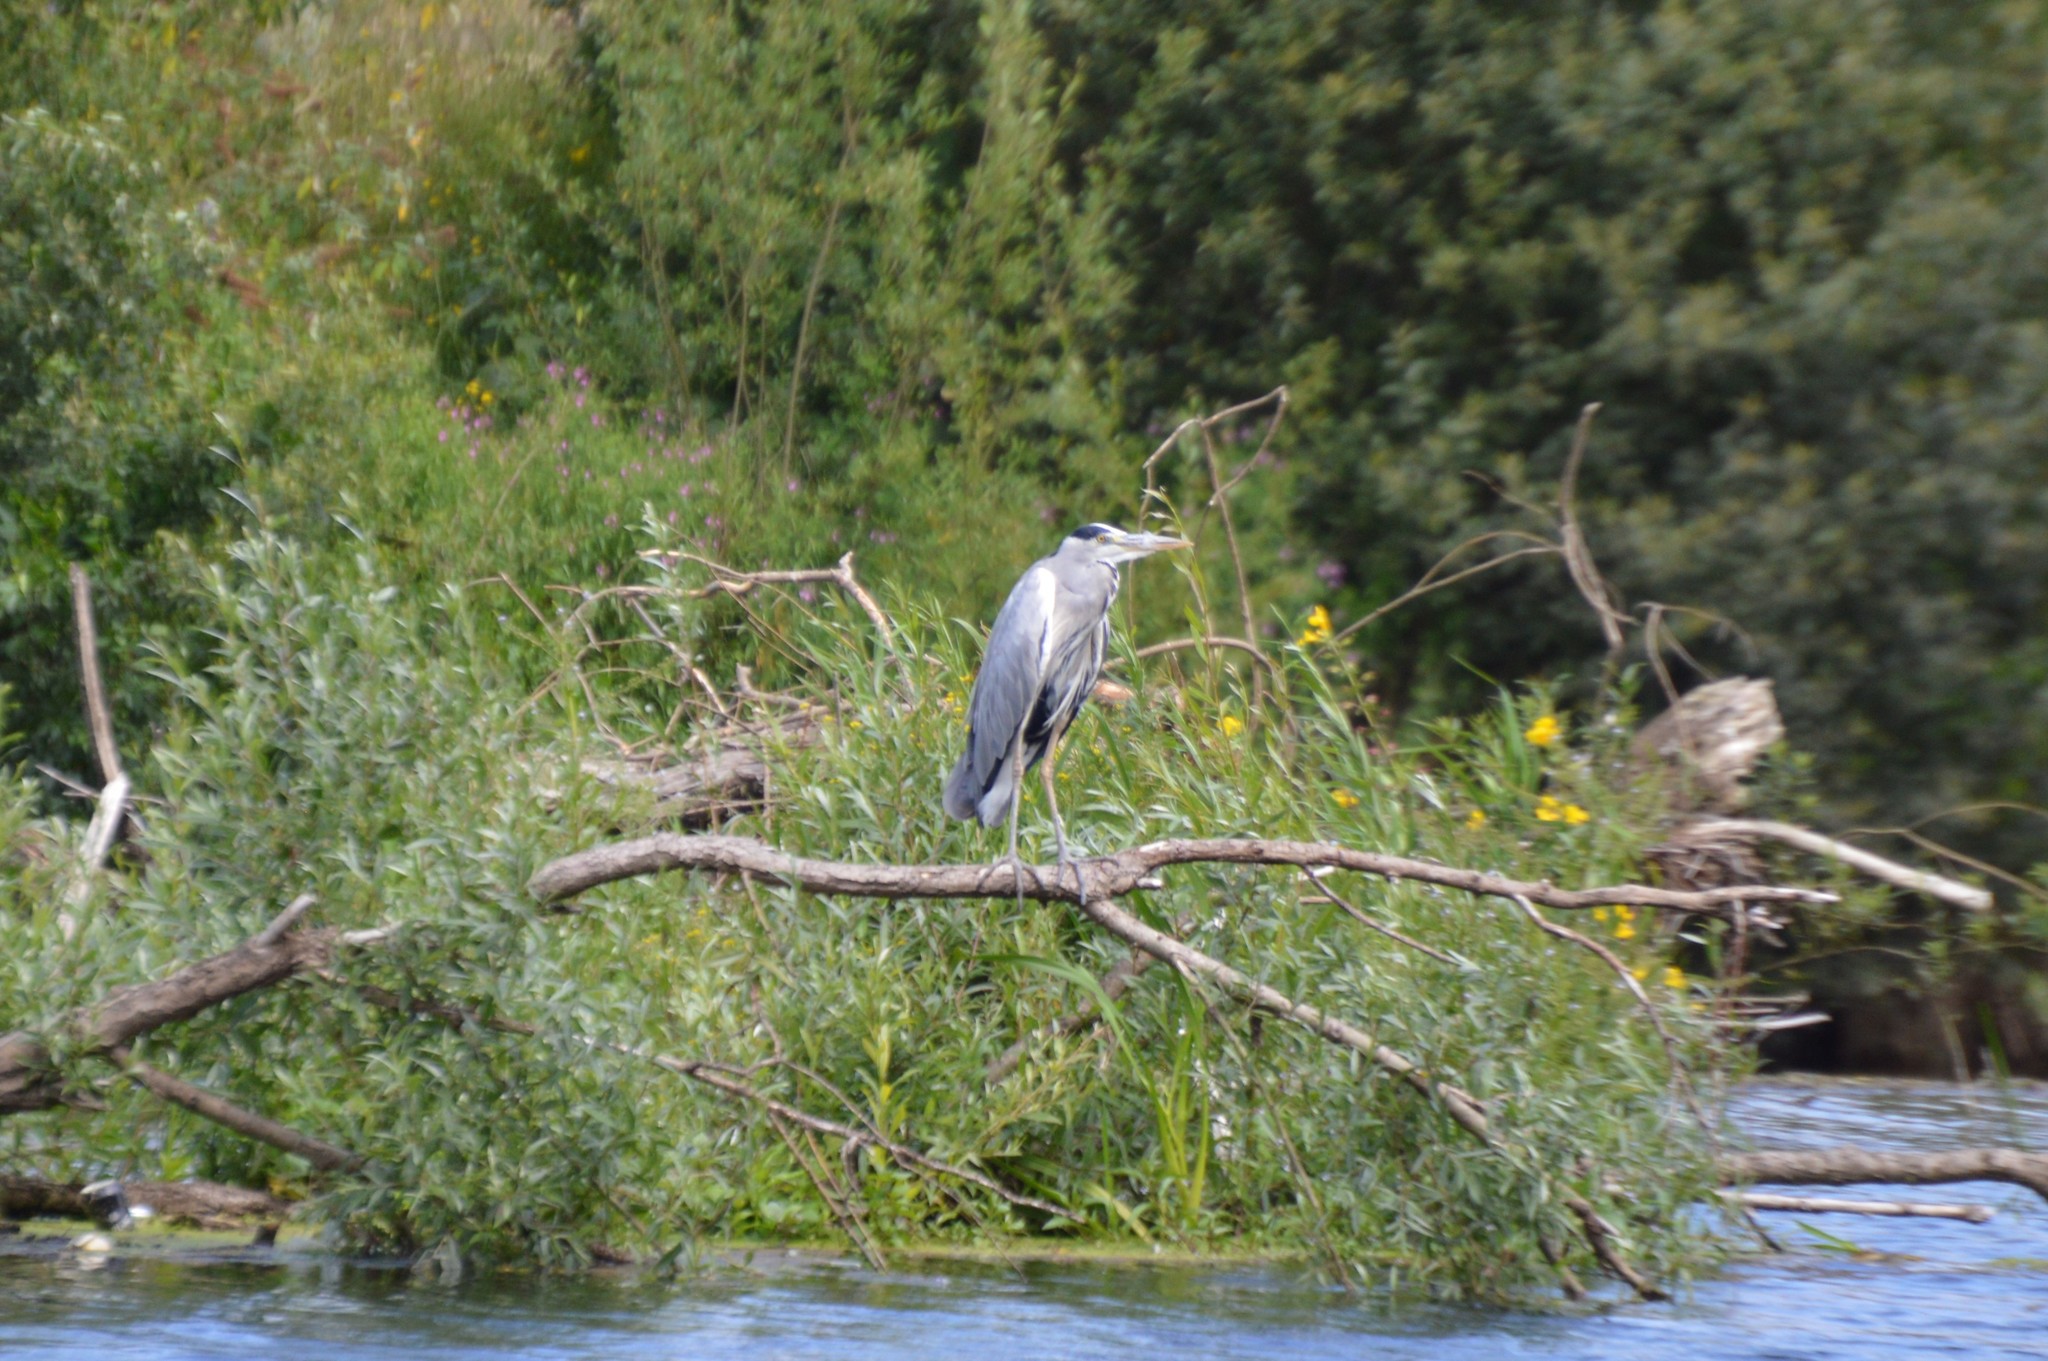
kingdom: Animalia
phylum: Chordata
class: Aves
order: Pelecaniformes
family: Ardeidae
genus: Ardea
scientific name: Ardea cinerea
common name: Grey heron
